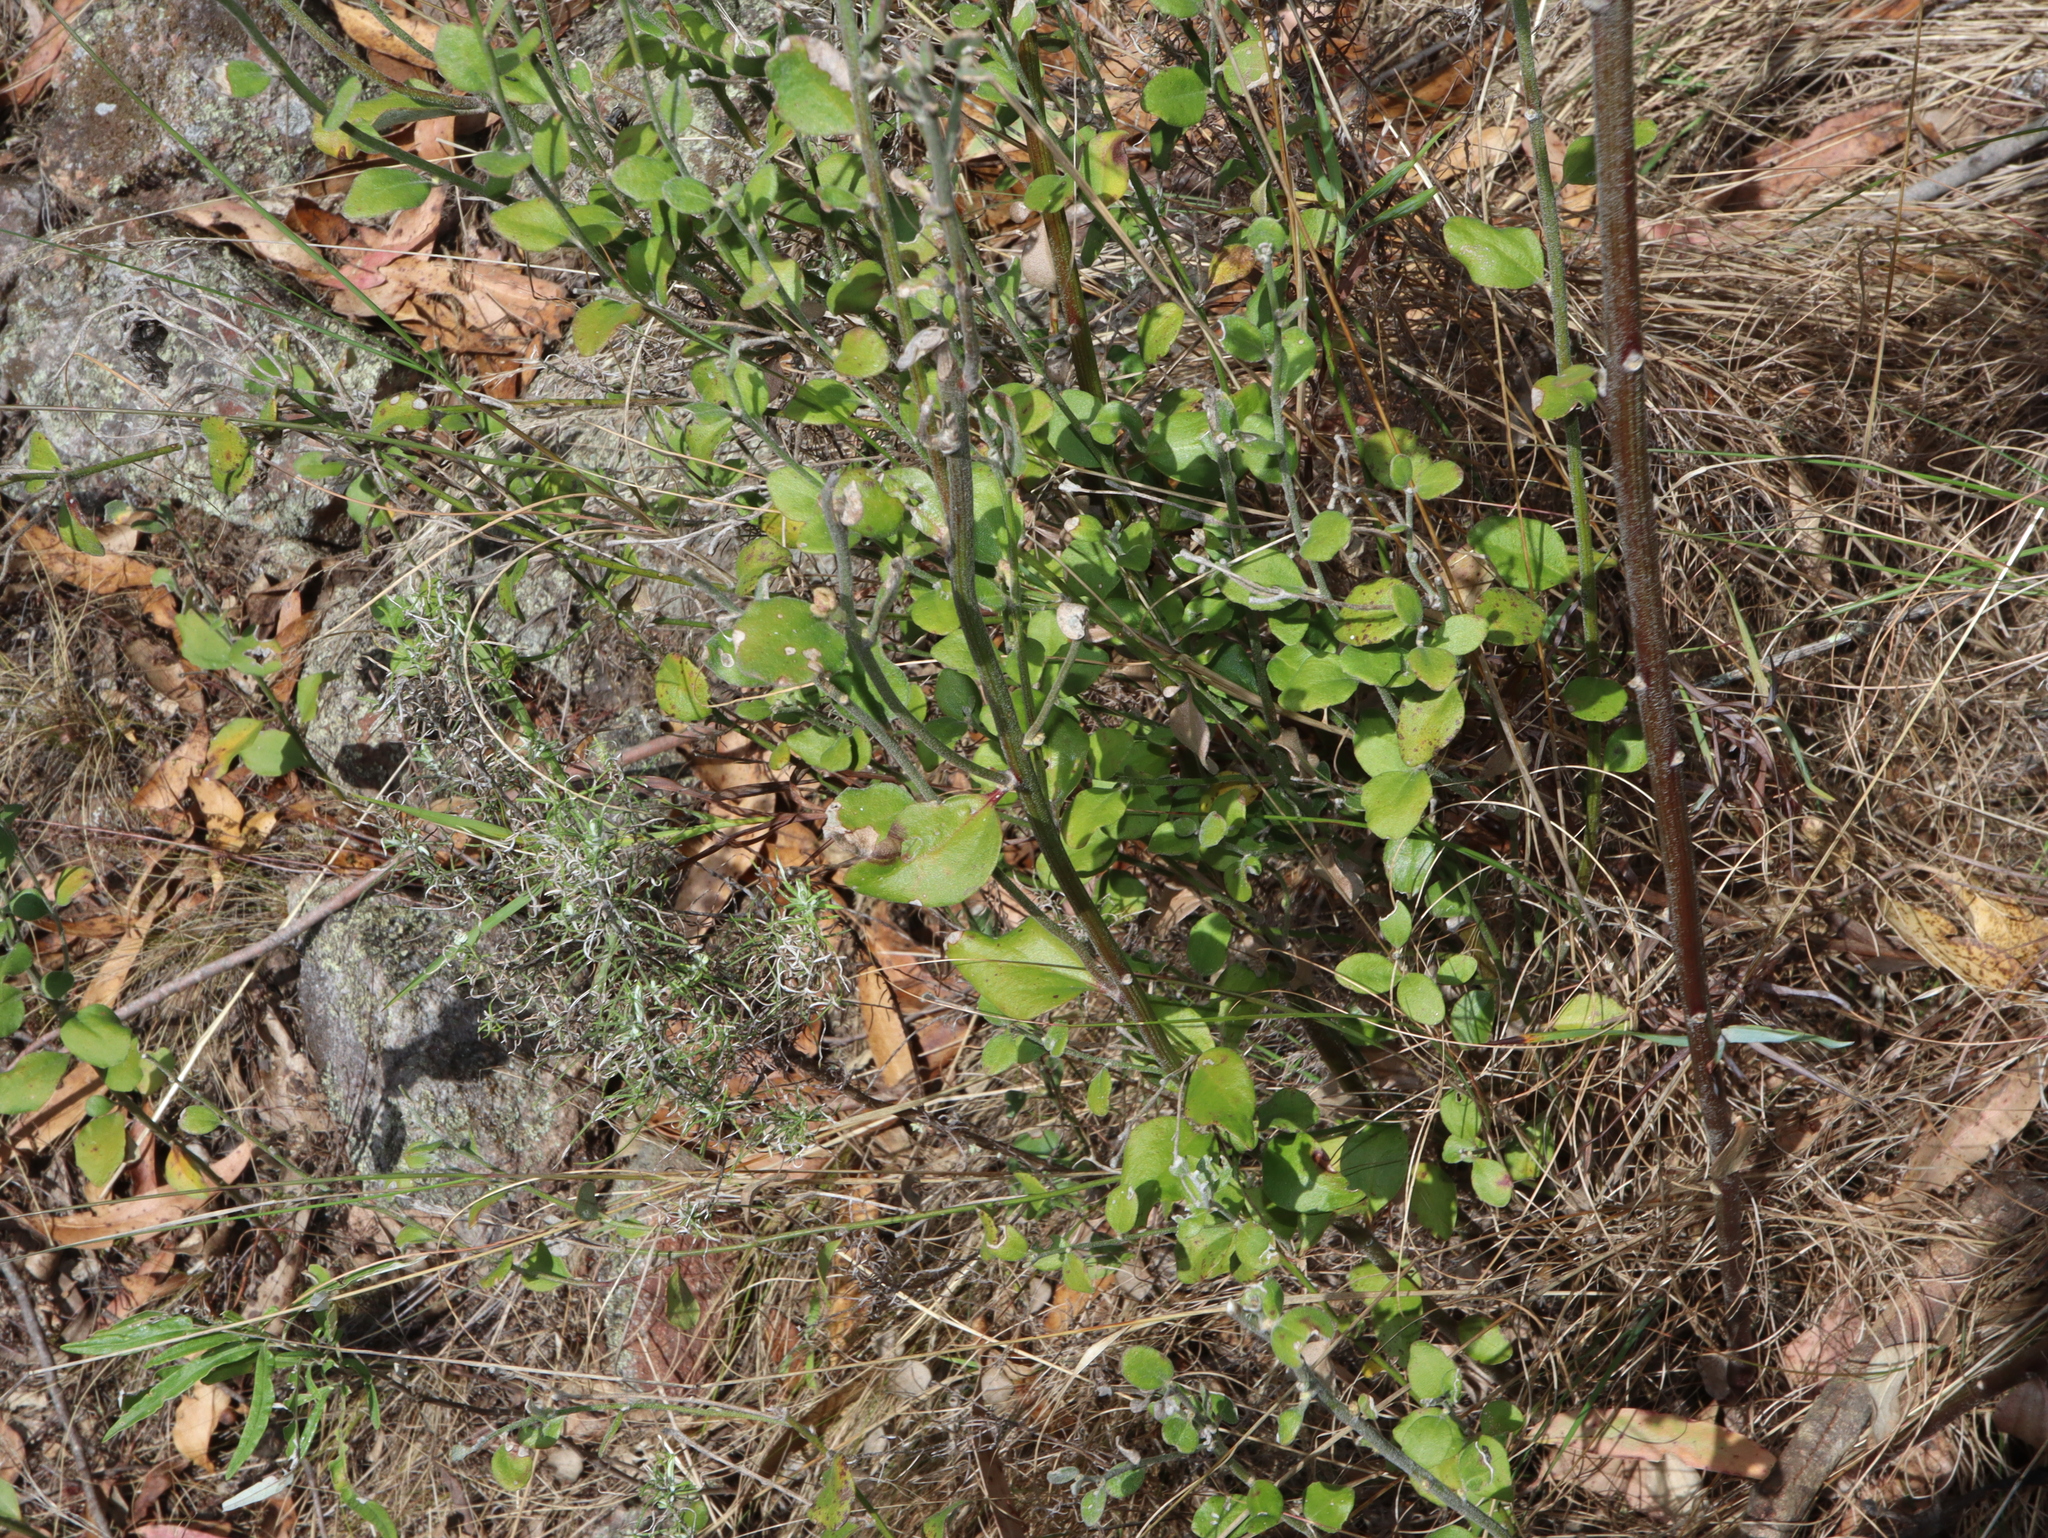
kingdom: Plantae
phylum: Tracheophyta
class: Magnoliopsida
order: Asterales
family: Goodeniaceae
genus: Dampiera
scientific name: Dampiera purpurea
